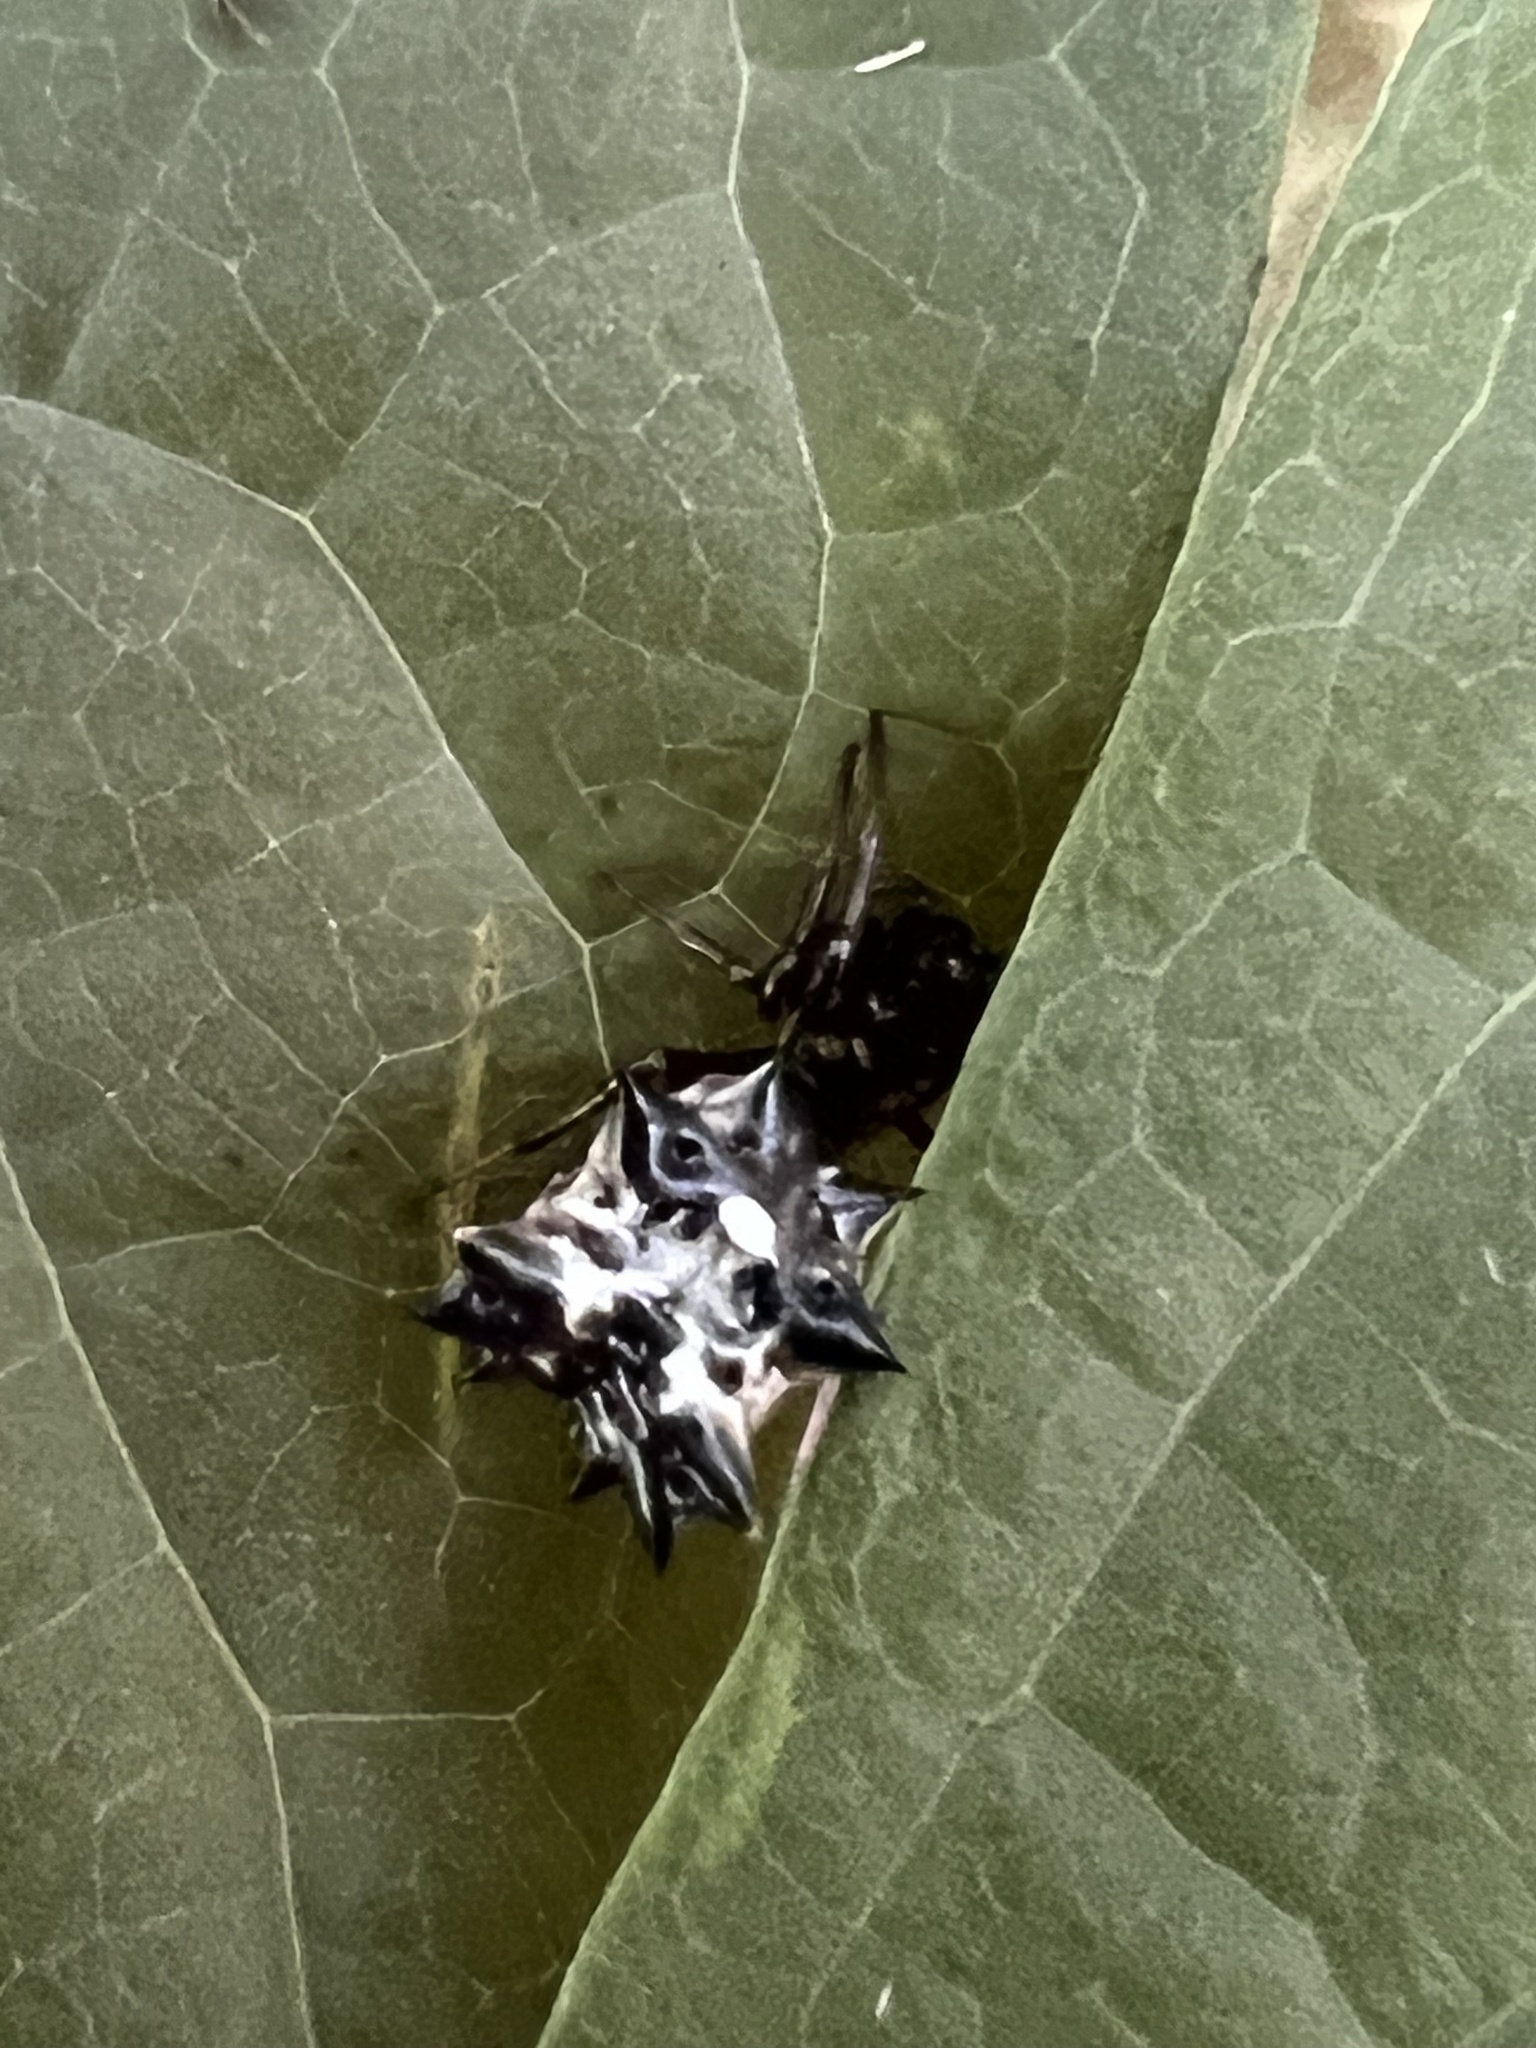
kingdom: Animalia
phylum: Arthropoda
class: Arachnida
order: Araneae
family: Araneidae
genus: Micrathena
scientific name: Micrathena gracilis
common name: Orb weavers
